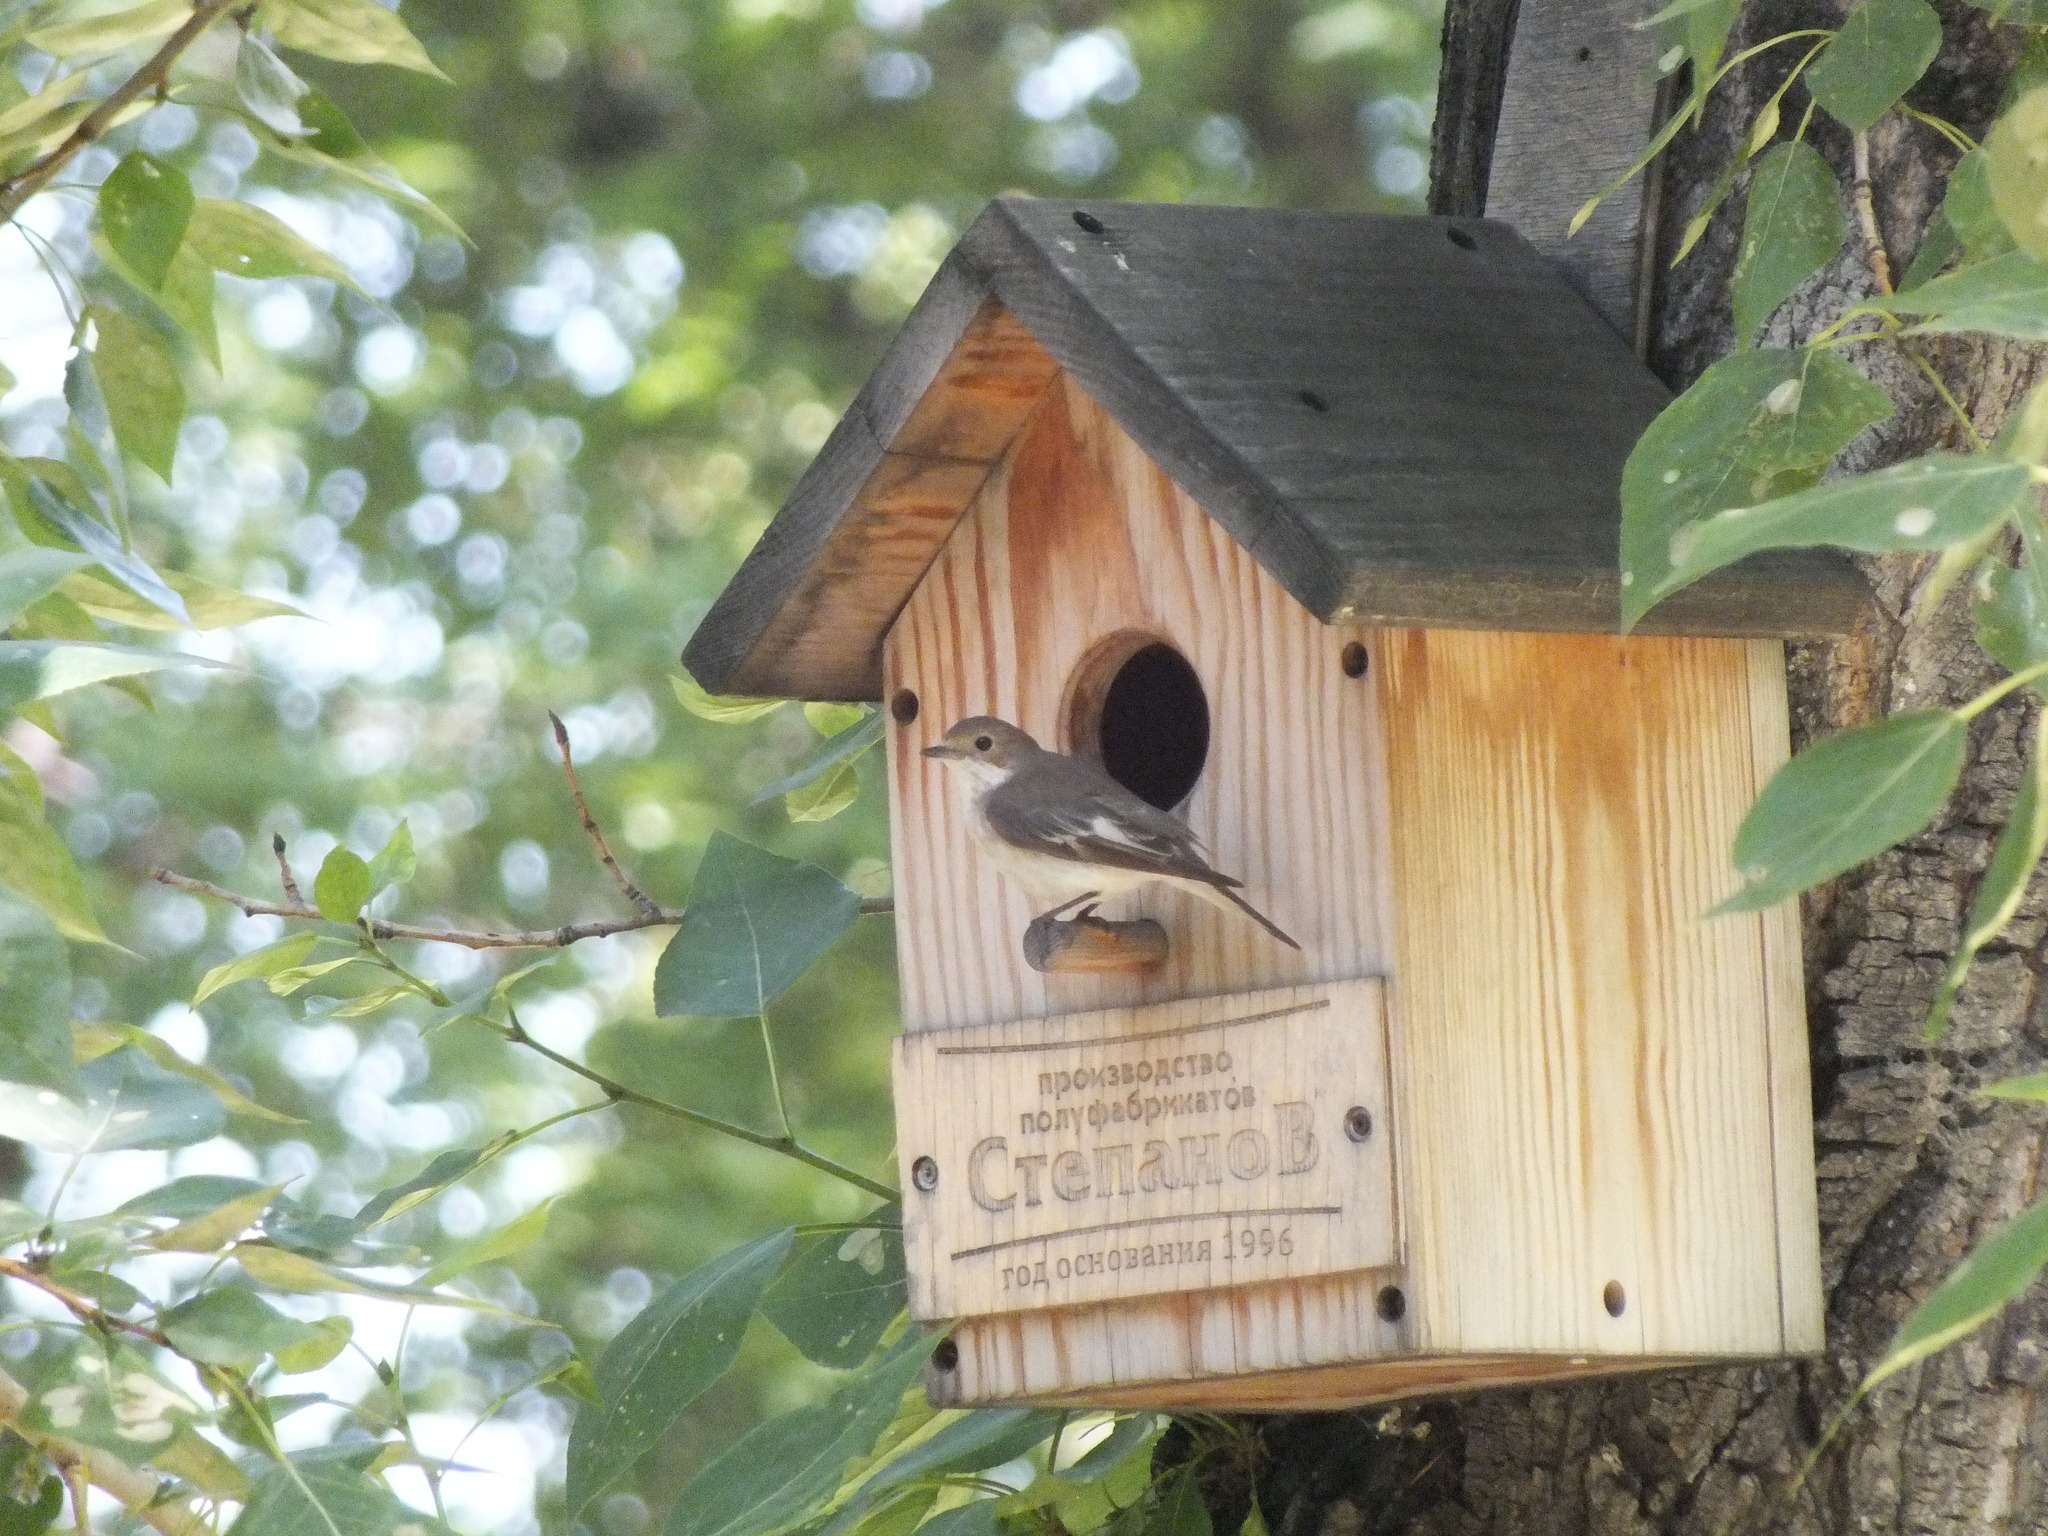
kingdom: Animalia
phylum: Chordata
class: Aves
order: Passeriformes
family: Muscicapidae
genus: Ficedula
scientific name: Ficedula hypoleuca
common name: European pied flycatcher
